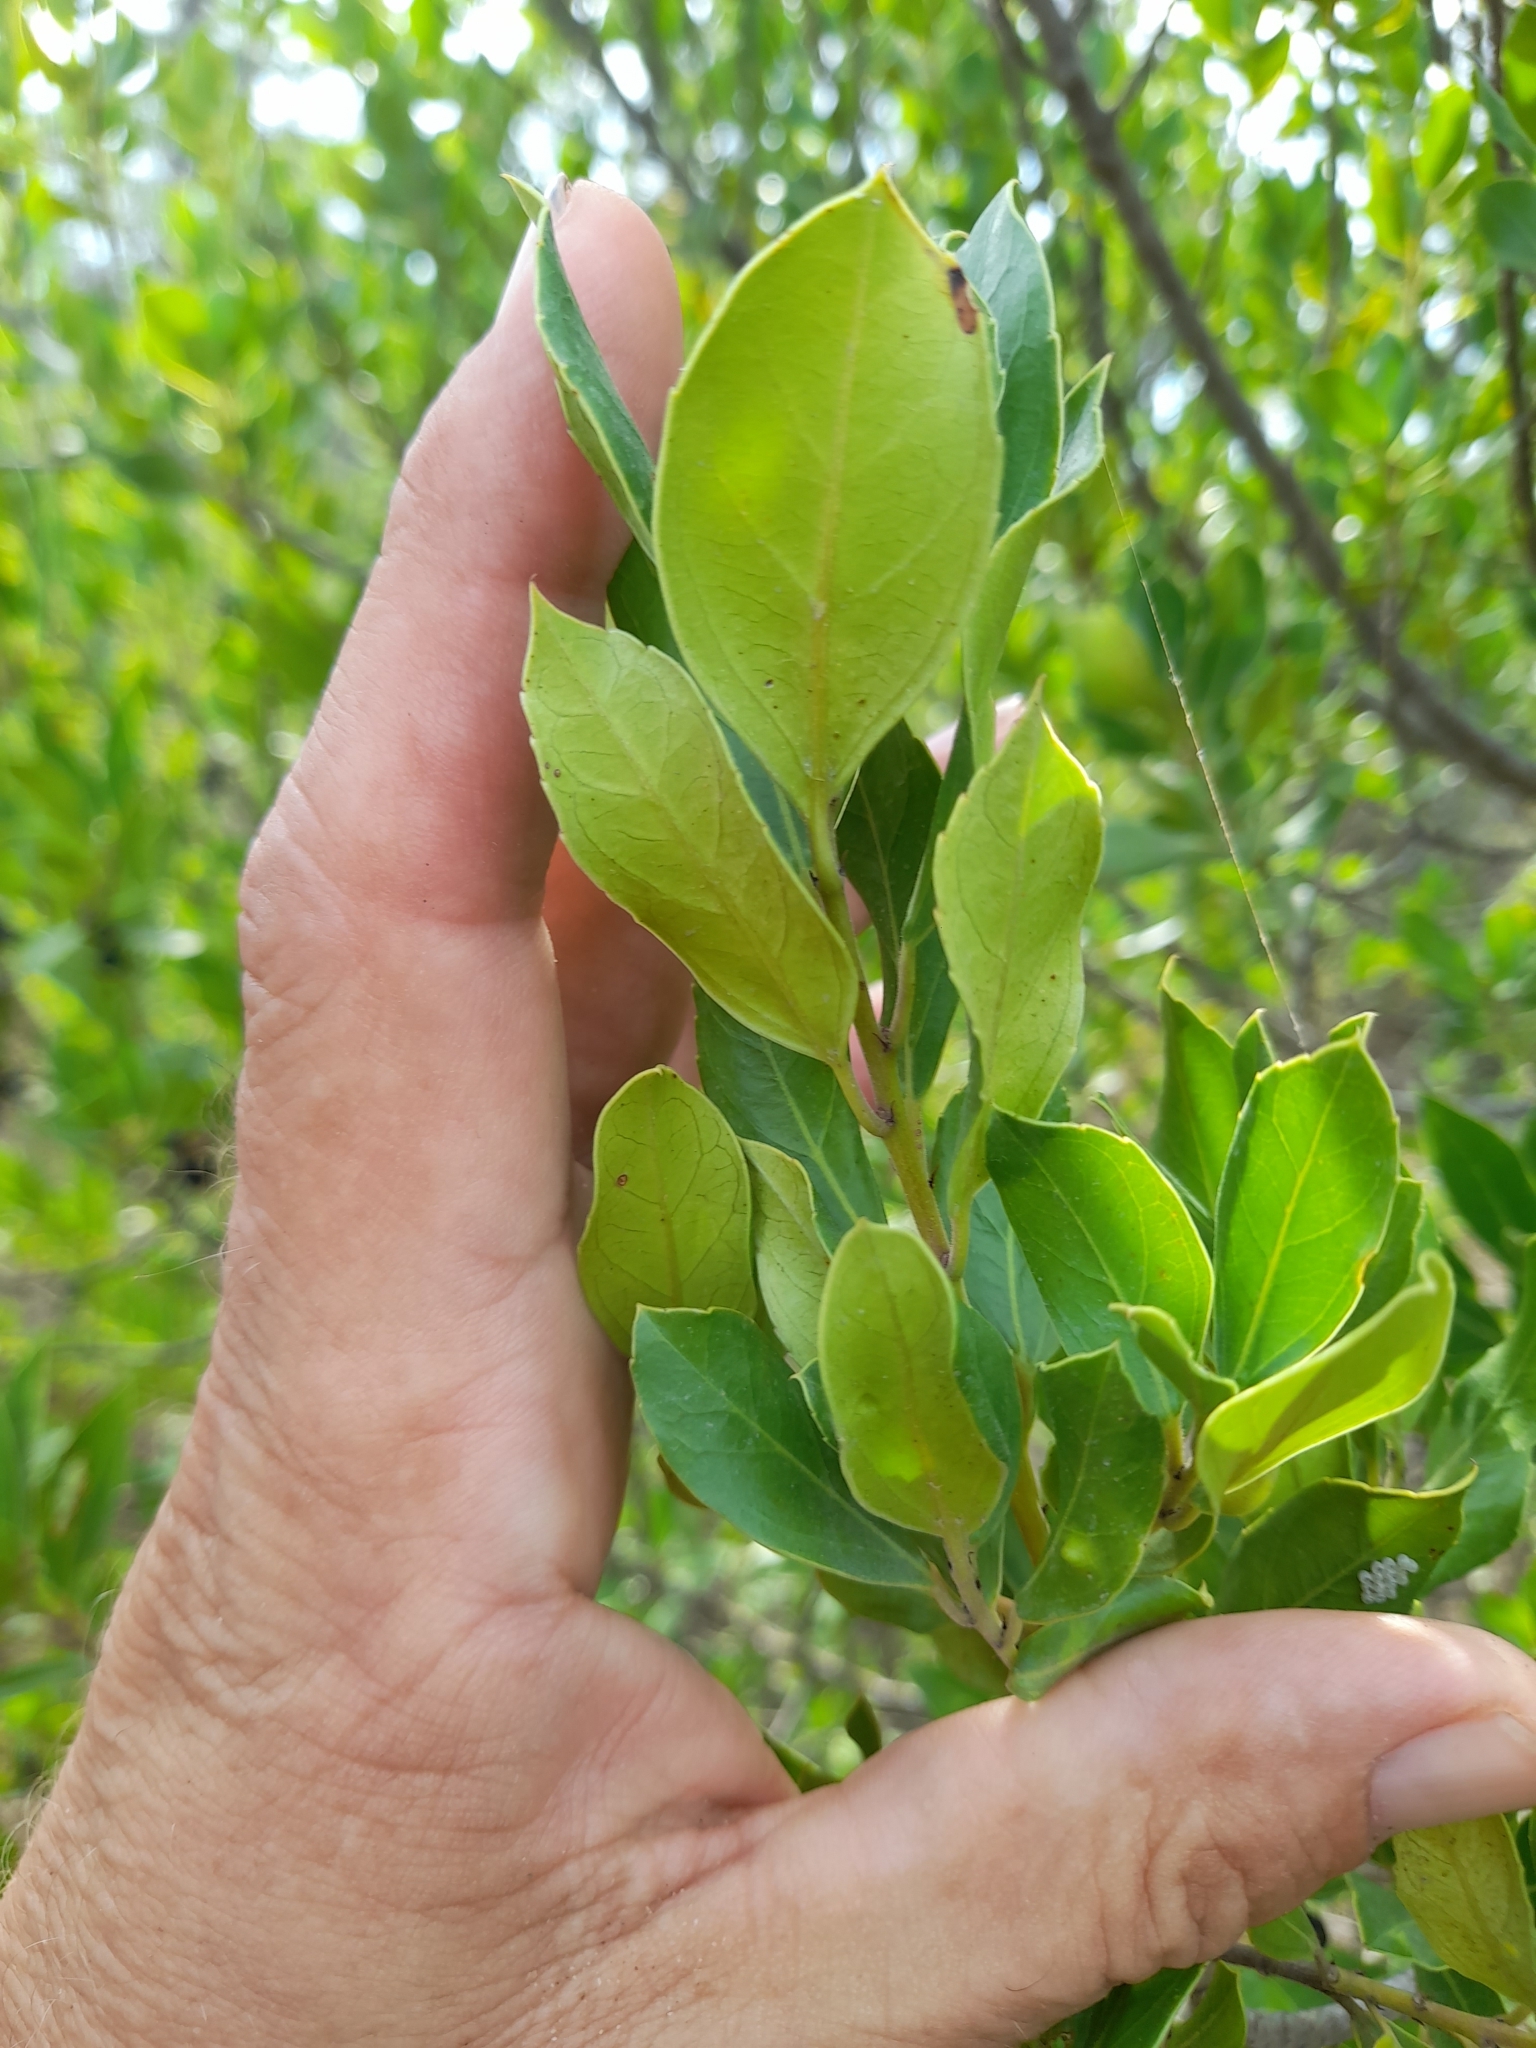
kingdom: Plantae
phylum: Tracheophyta
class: Magnoliopsida
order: Rosales
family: Rhamnaceae
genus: Rhamnus
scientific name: Rhamnus alaternus
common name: Mediterranean buckthorn
